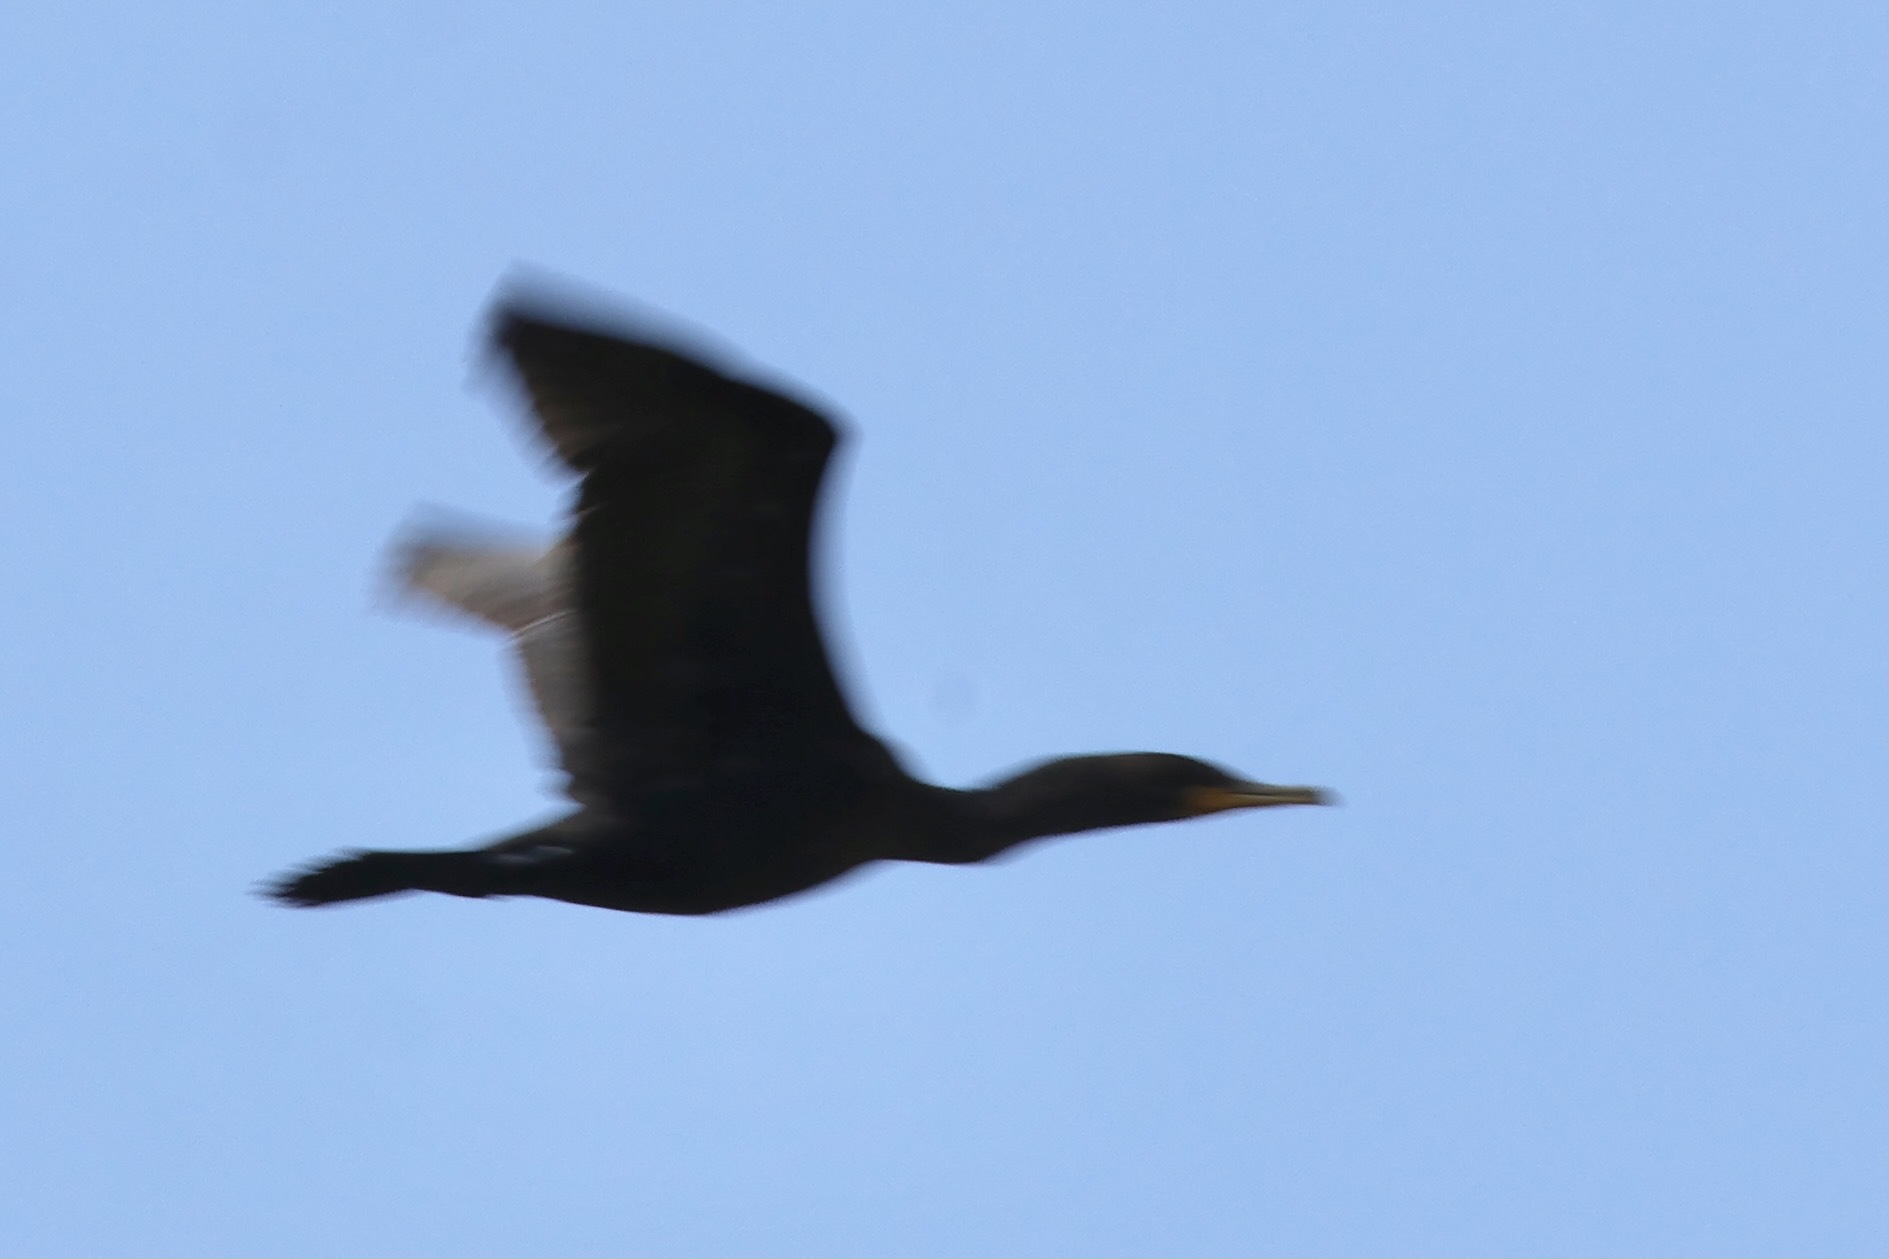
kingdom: Animalia
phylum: Chordata
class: Aves
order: Suliformes
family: Phalacrocoracidae
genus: Phalacrocorax
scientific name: Phalacrocorax auritus
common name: Double-crested cormorant
